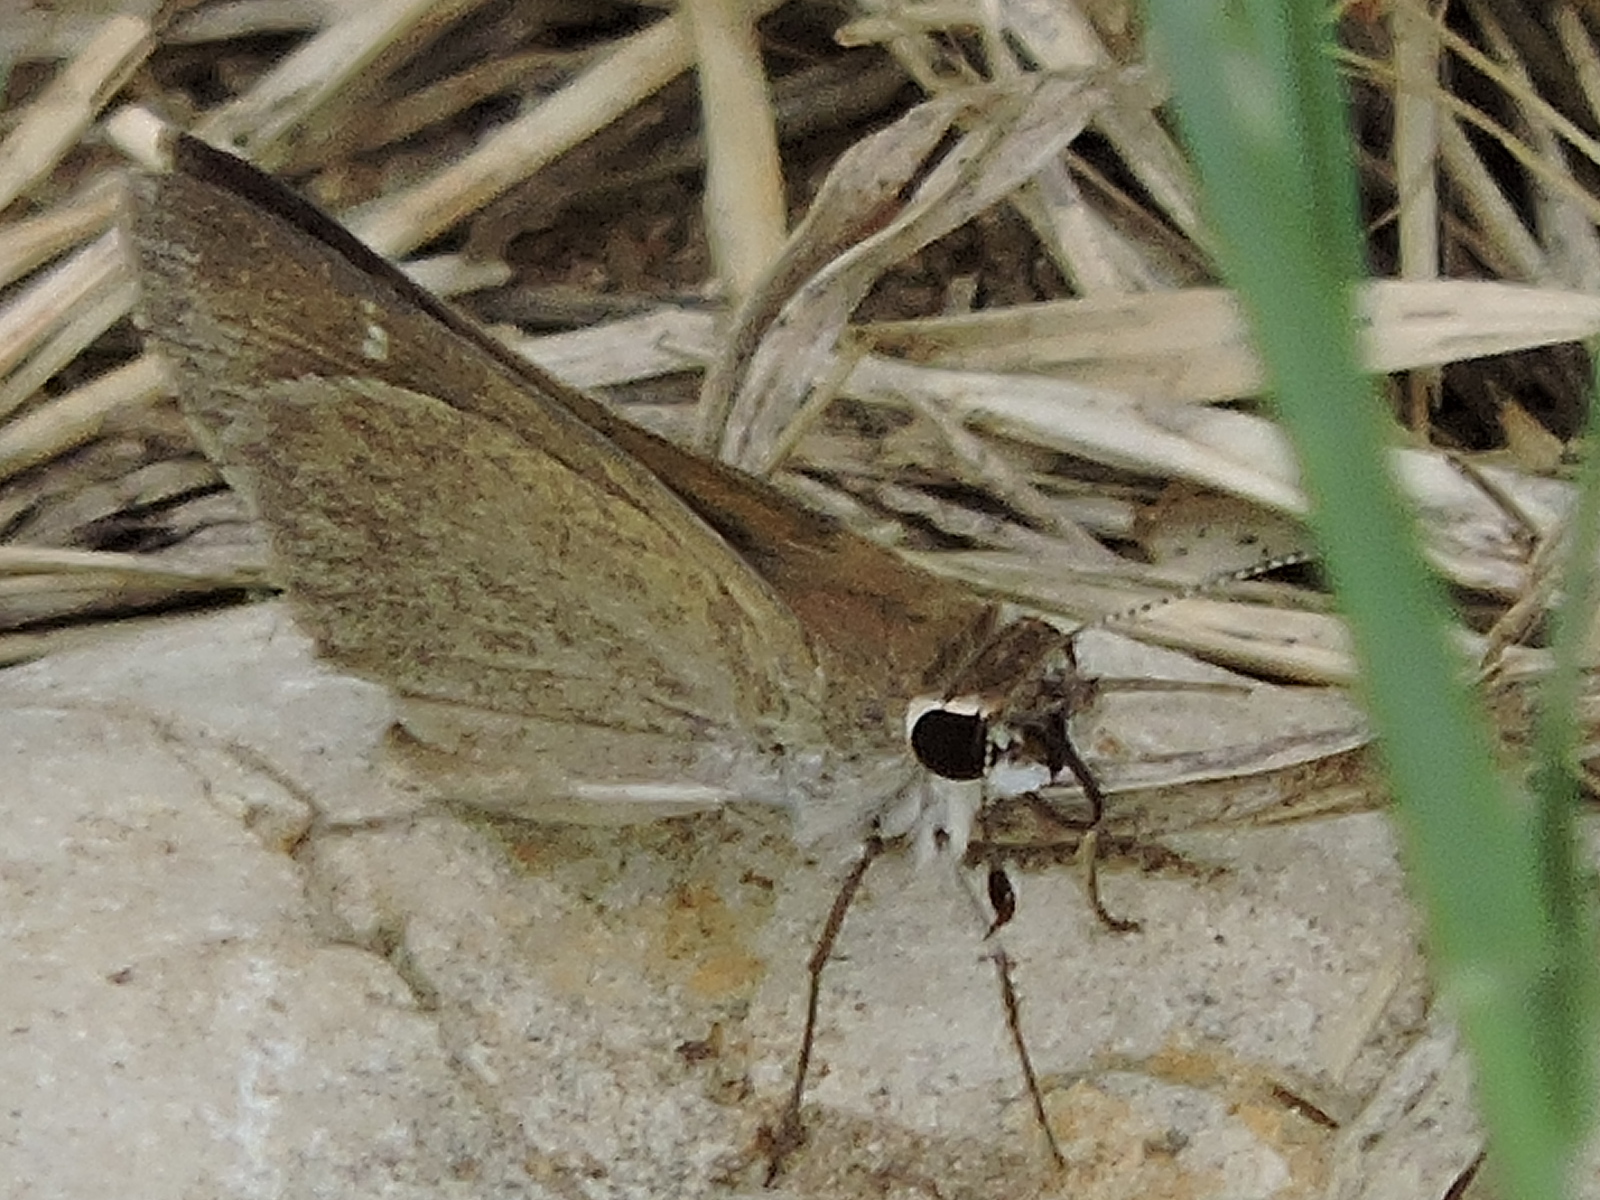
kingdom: Animalia
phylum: Arthropoda
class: Insecta
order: Lepidoptera
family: Hesperiidae
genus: Lerodea
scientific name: Lerodea eufala
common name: Eufala skipper
